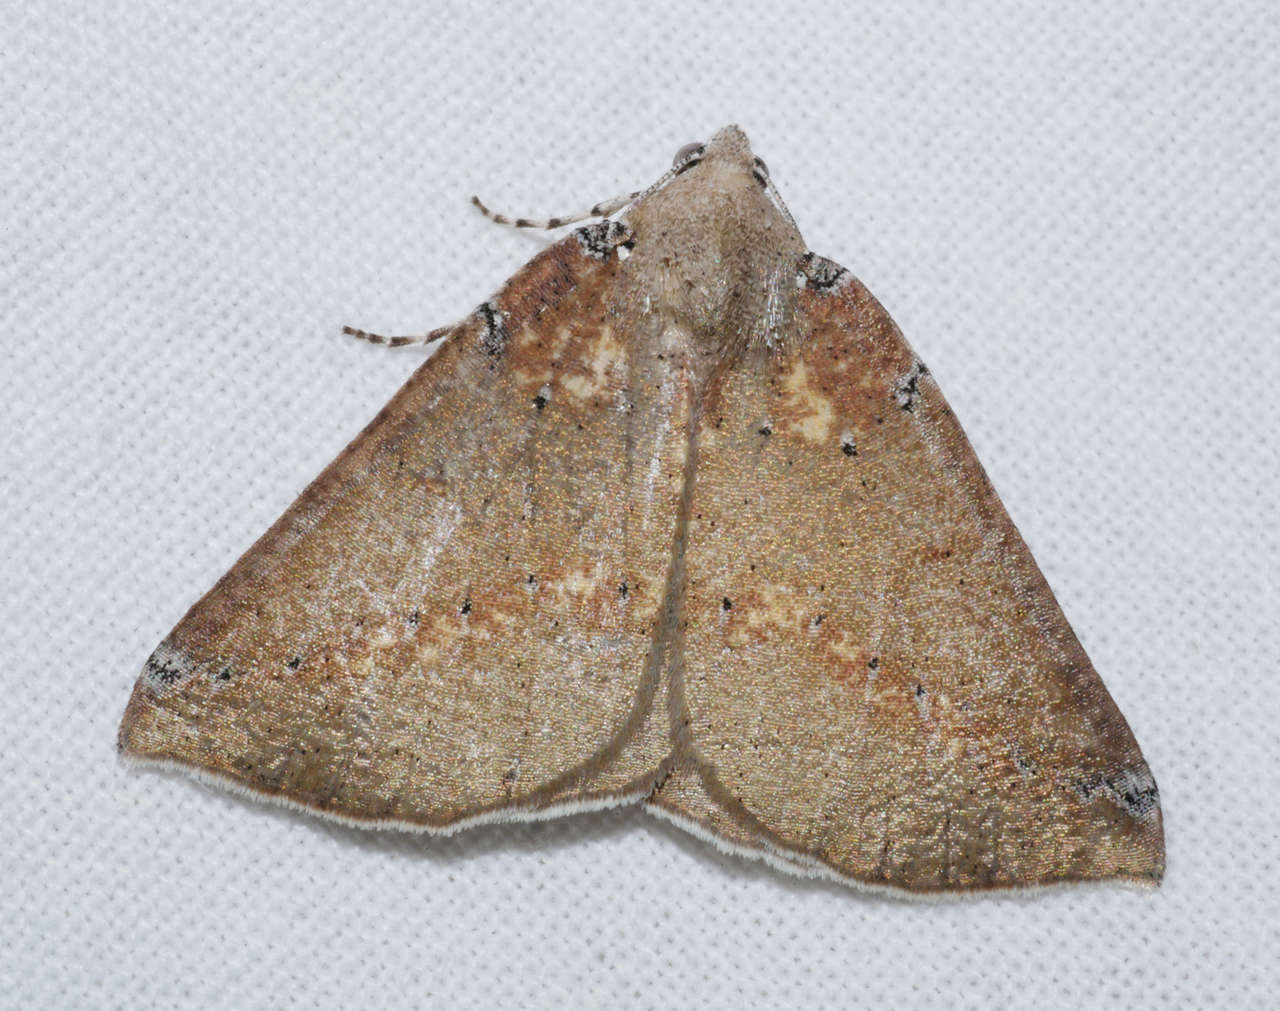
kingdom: Animalia
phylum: Arthropoda
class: Insecta
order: Lepidoptera
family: Geometridae
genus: Cassythaphaga
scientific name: Cassythaphaga macarta
